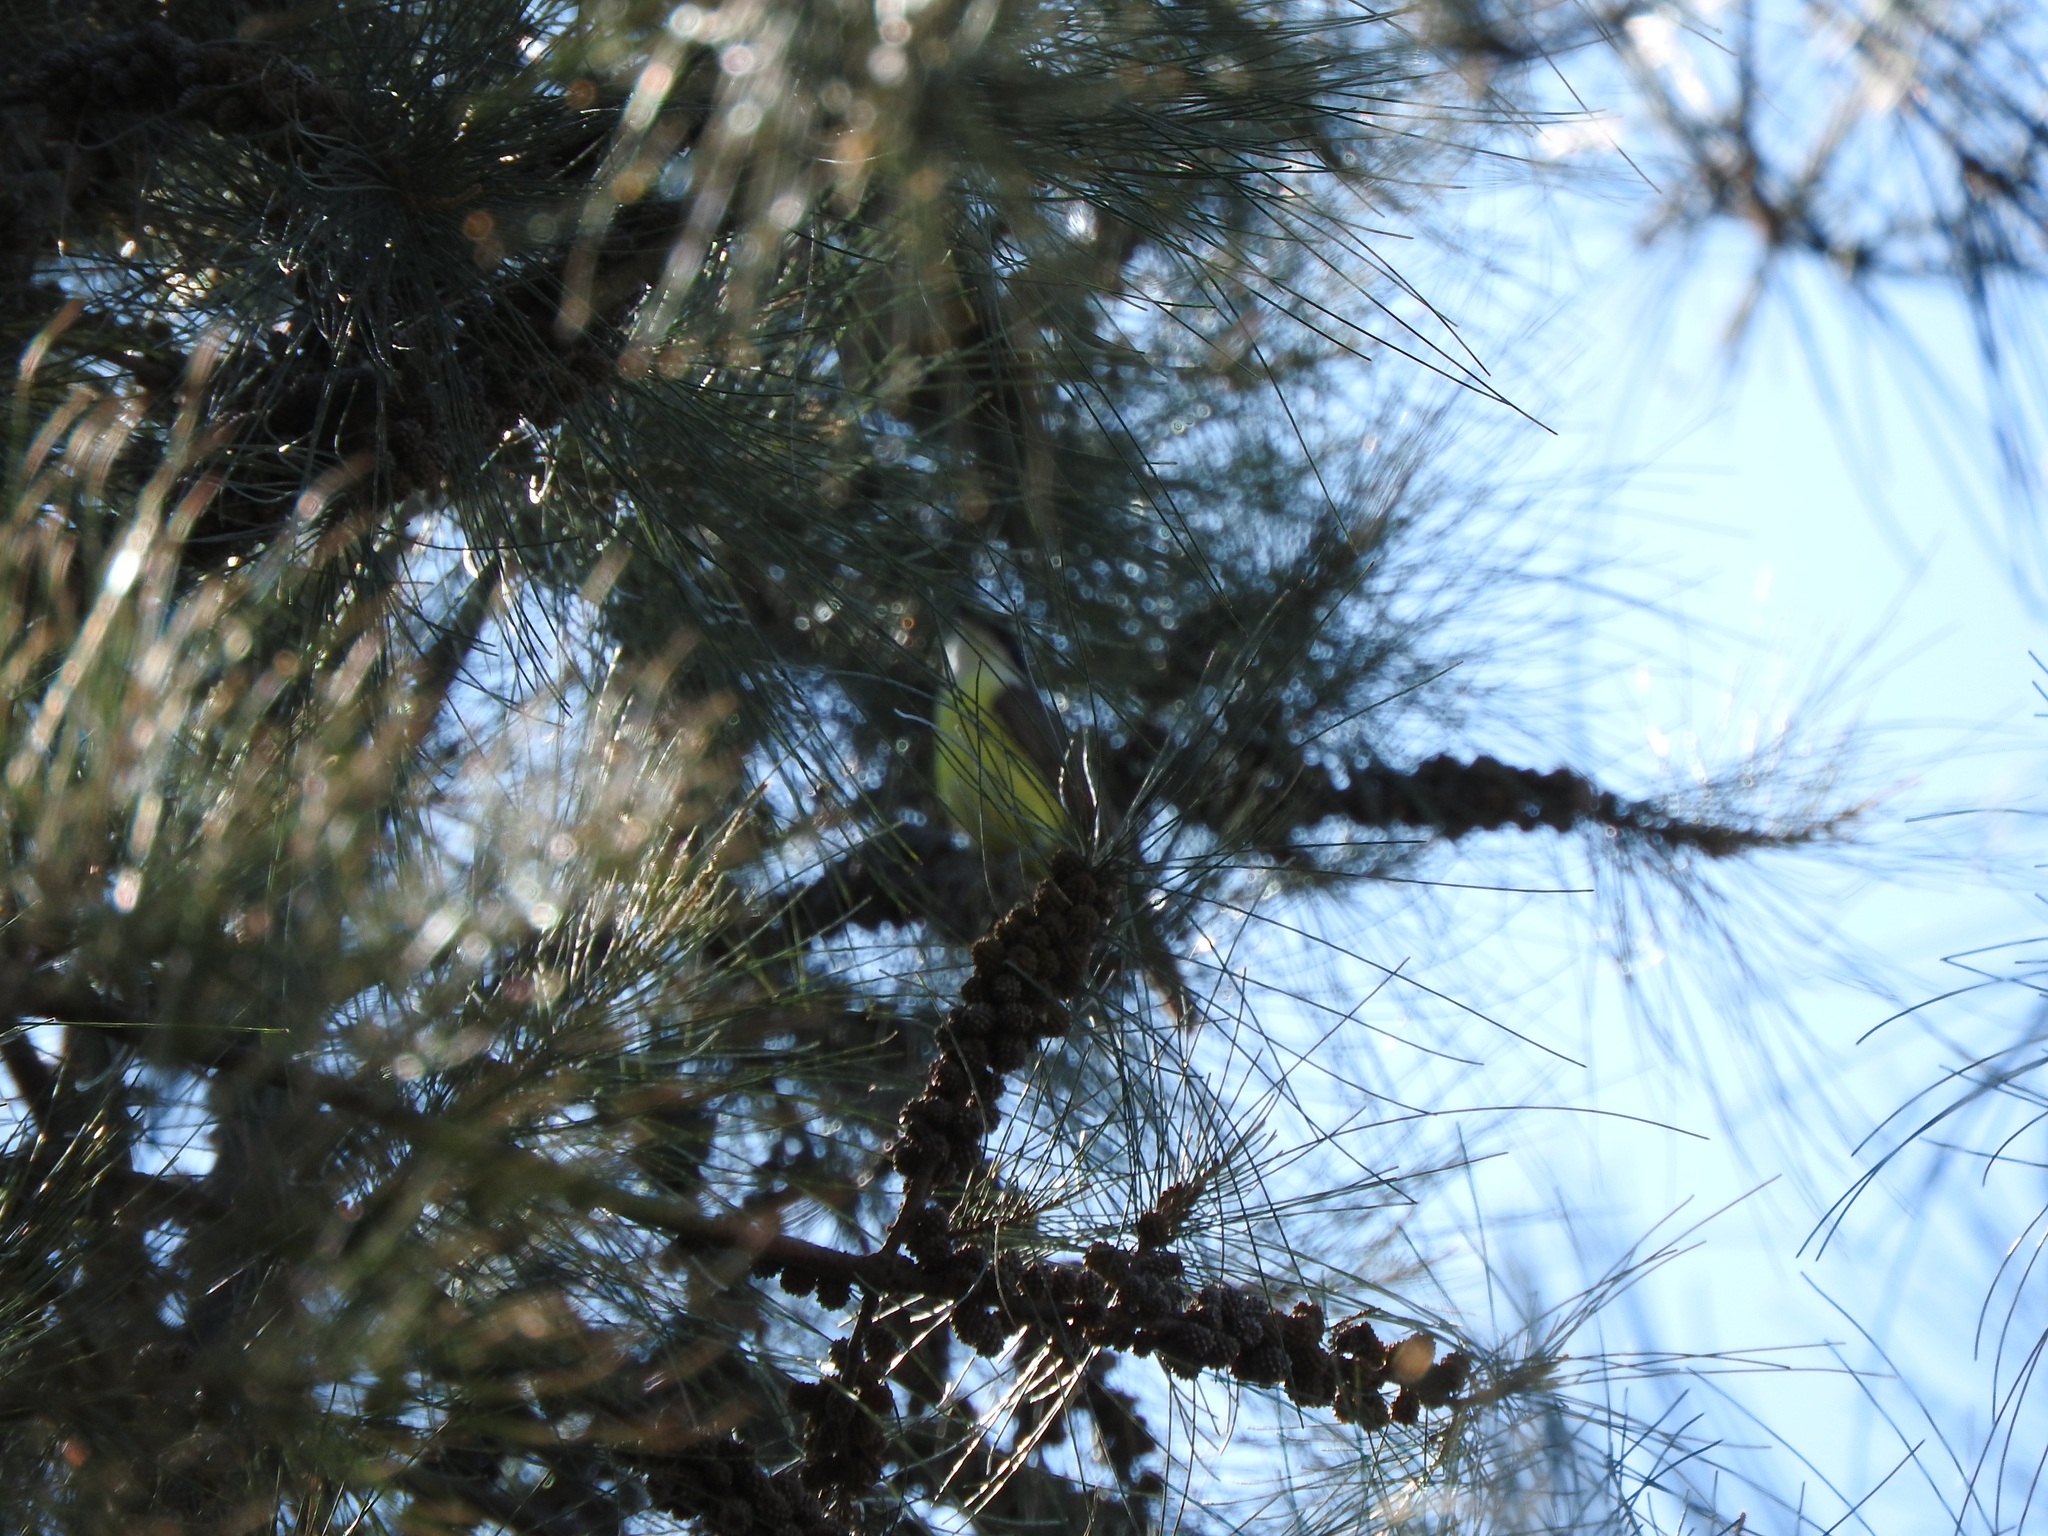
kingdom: Animalia
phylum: Chordata
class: Aves
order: Passeriformes
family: Tyrannidae
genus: Pitangus
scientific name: Pitangus sulphuratus
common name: Great kiskadee
